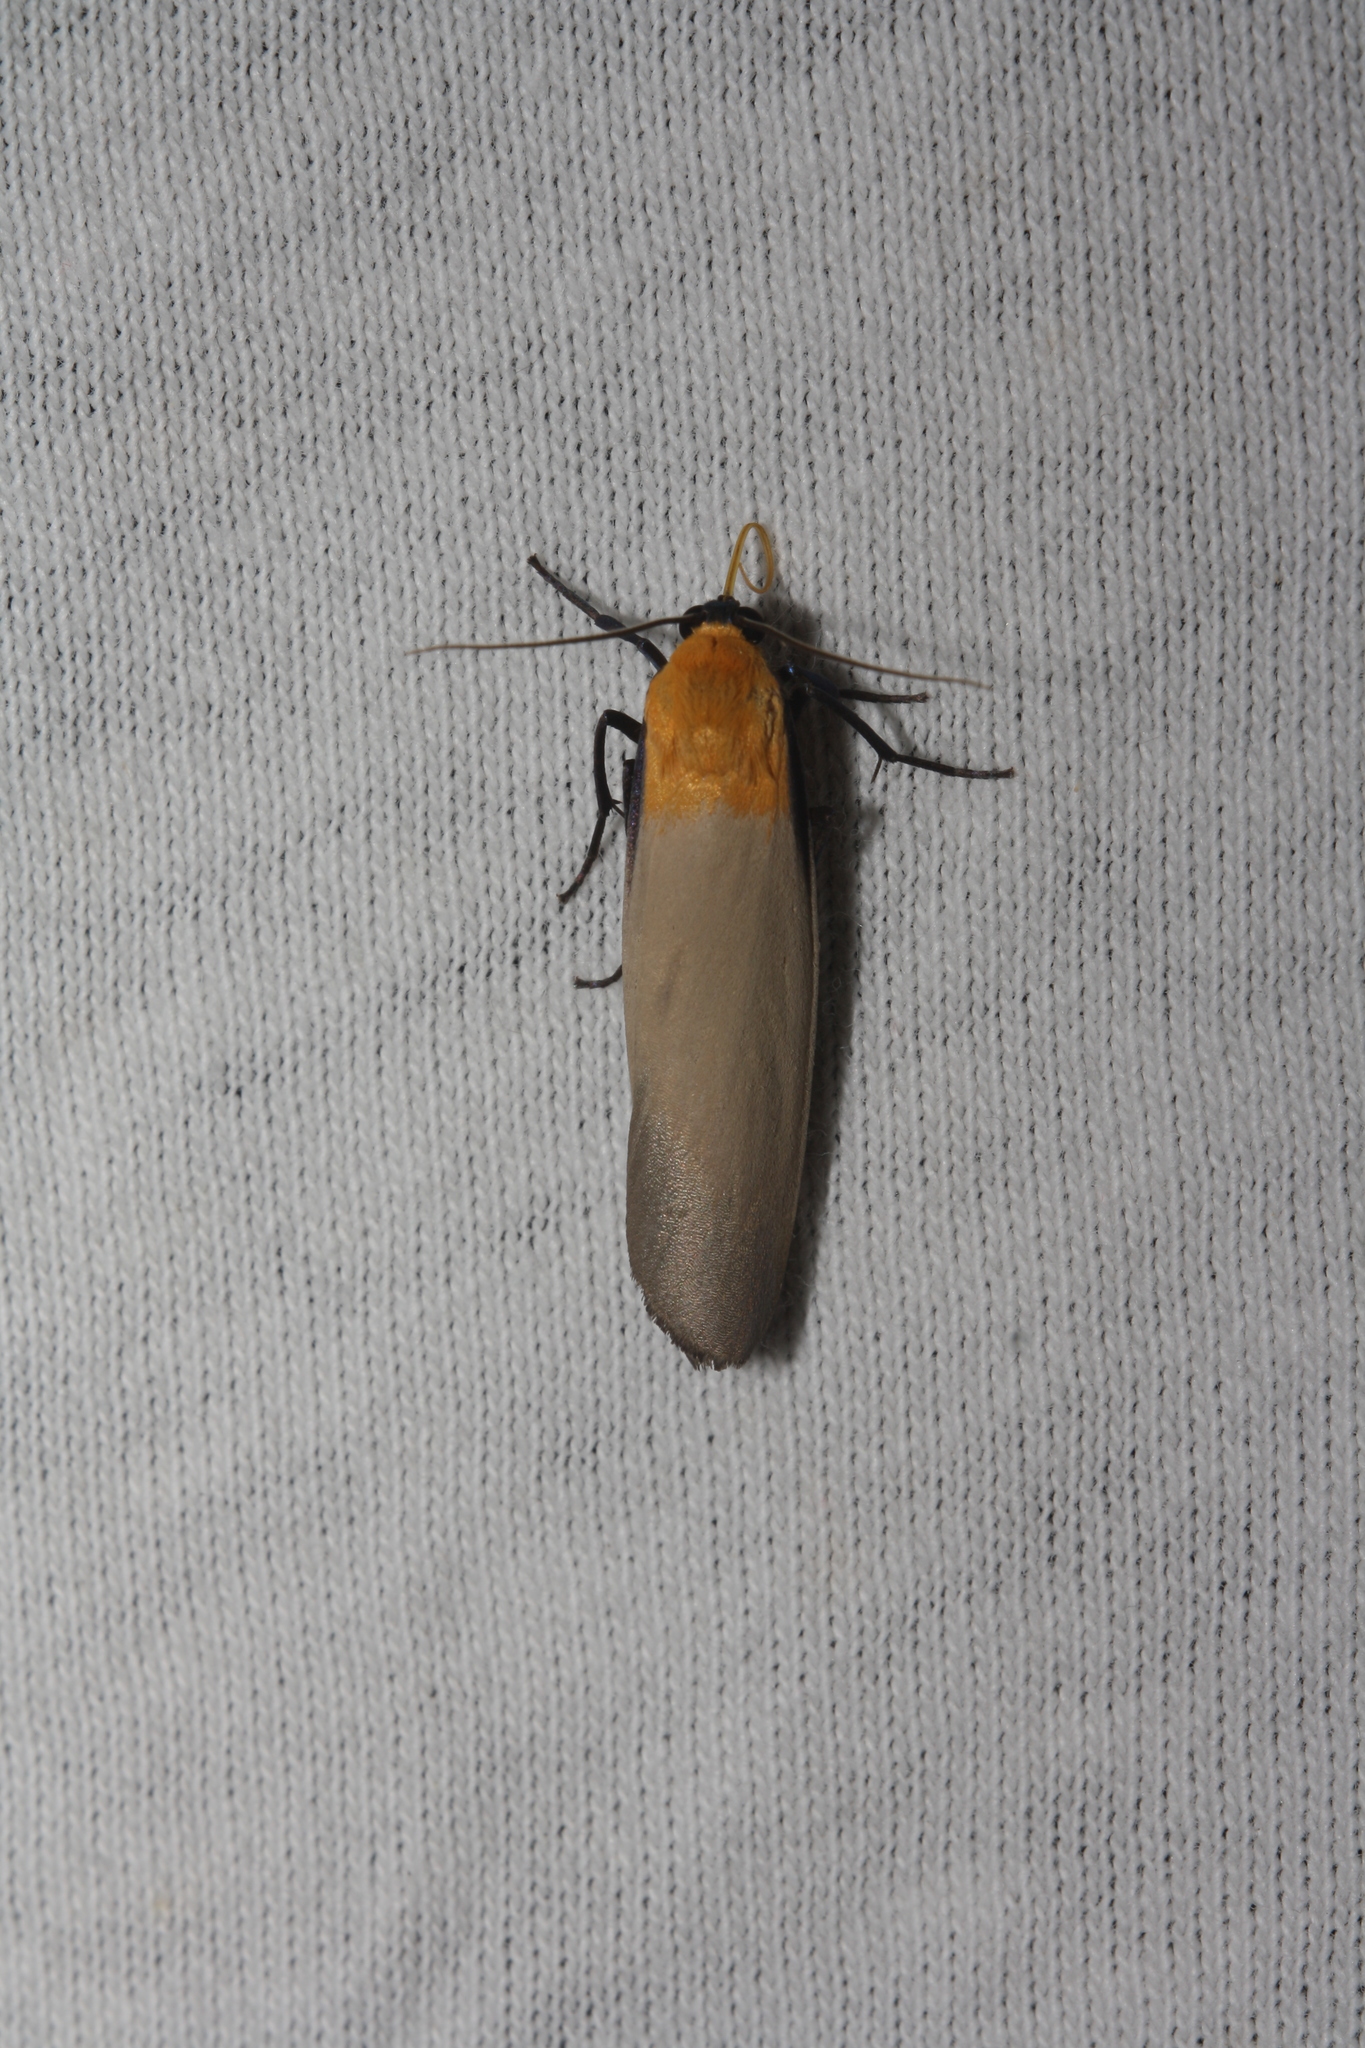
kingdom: Animalia
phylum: Arthropoda
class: Insecta
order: Lepidoptera
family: Erebidae
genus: Lithosia
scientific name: Lithosia quadra
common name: Four-spotted footman
